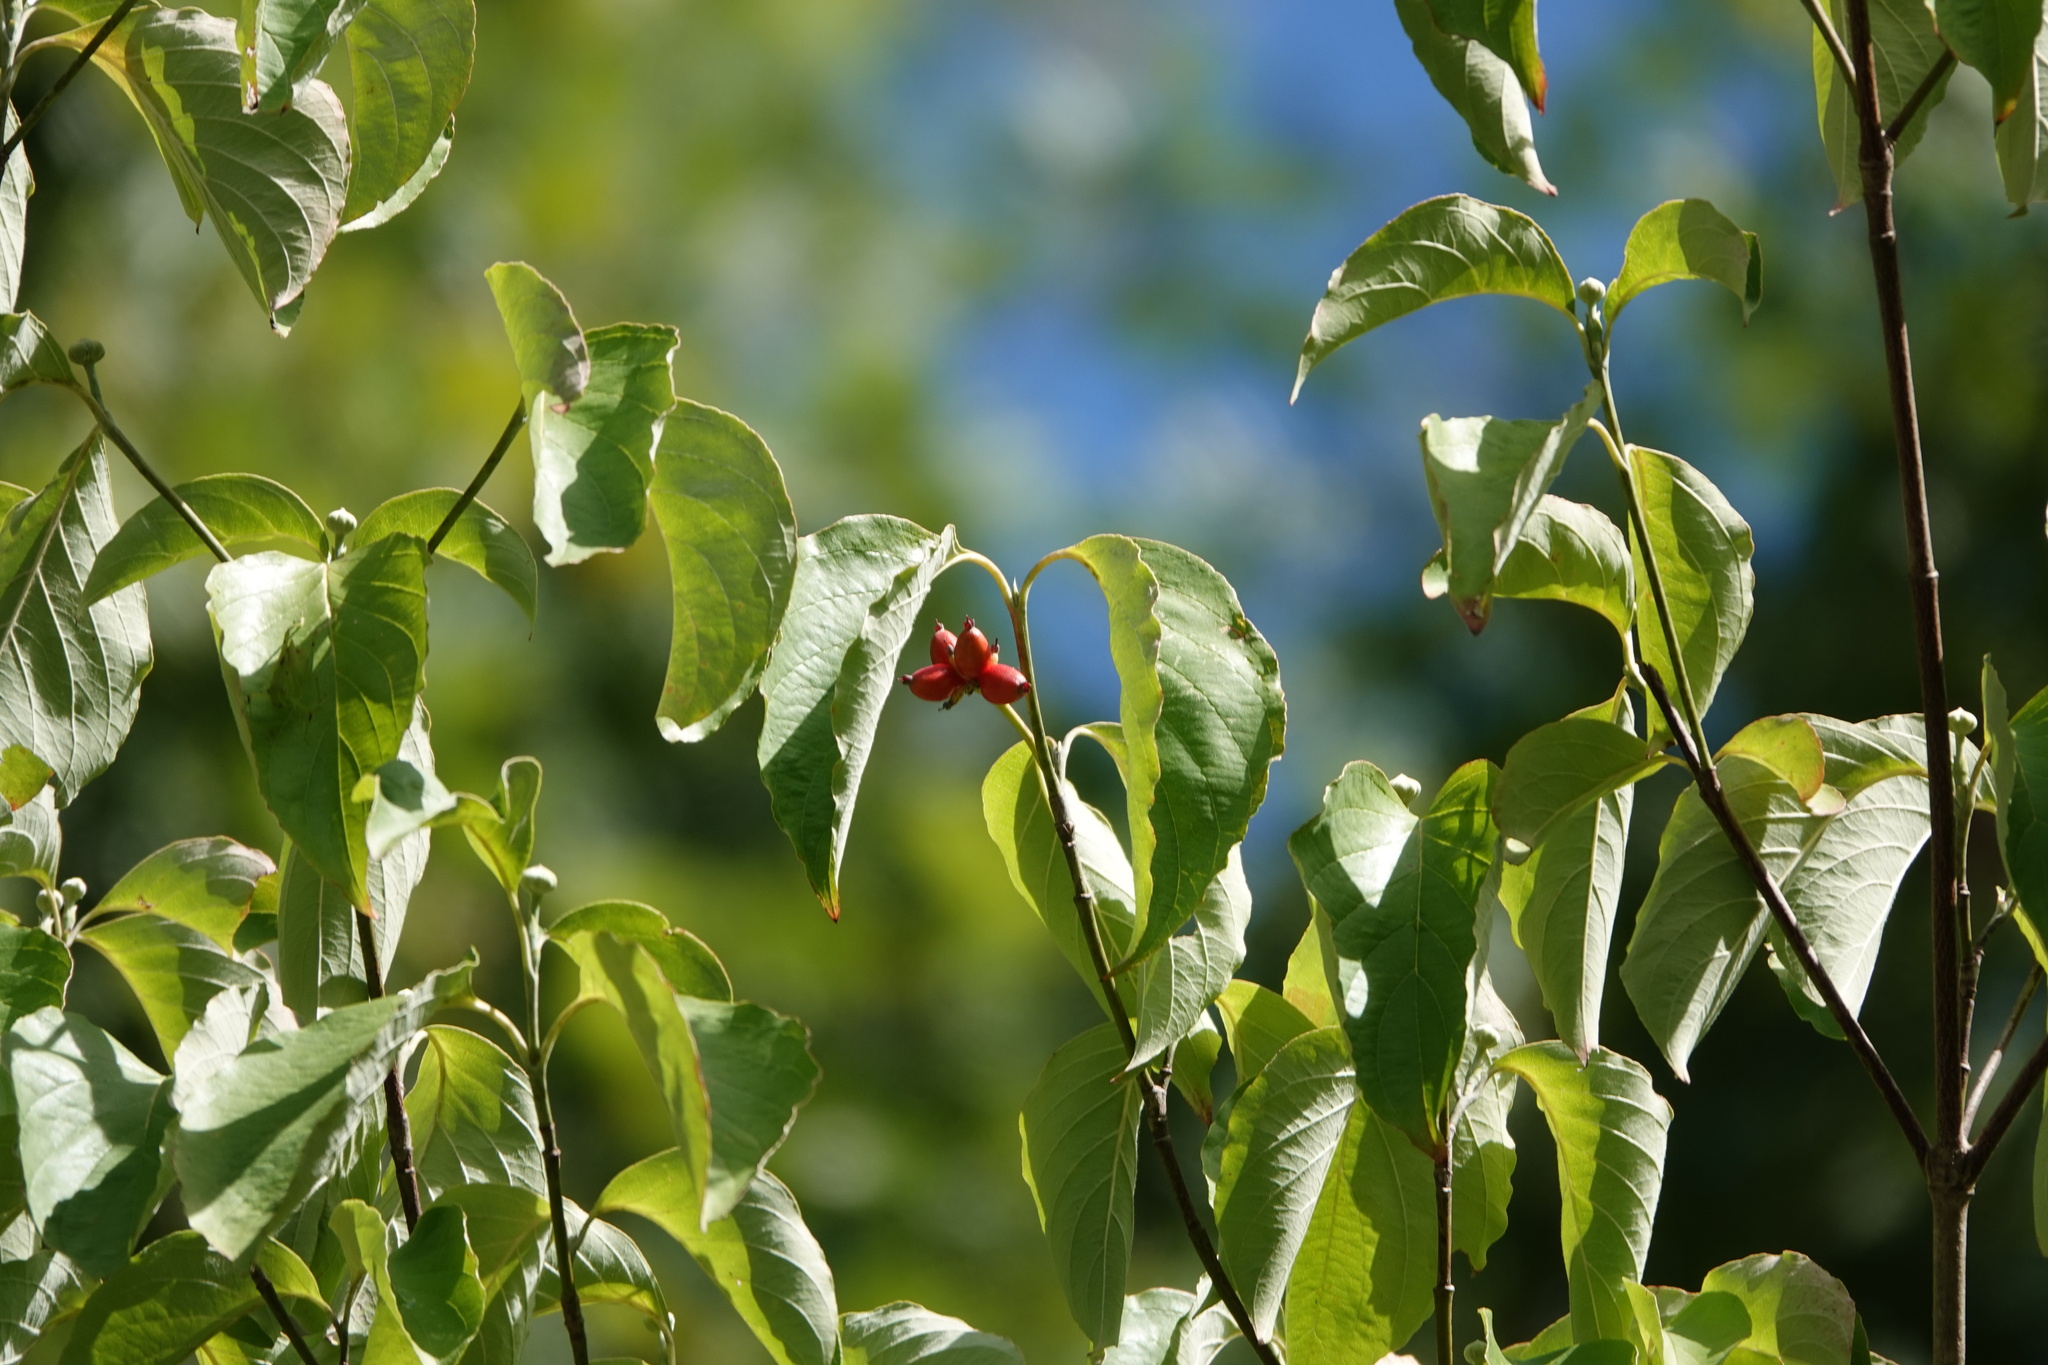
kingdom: Plantae
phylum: Tracheophyta
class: Magnoliopsida
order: Cornales
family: Cornaceae
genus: Cornus
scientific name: Cornus florida
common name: Flowering dogwood
